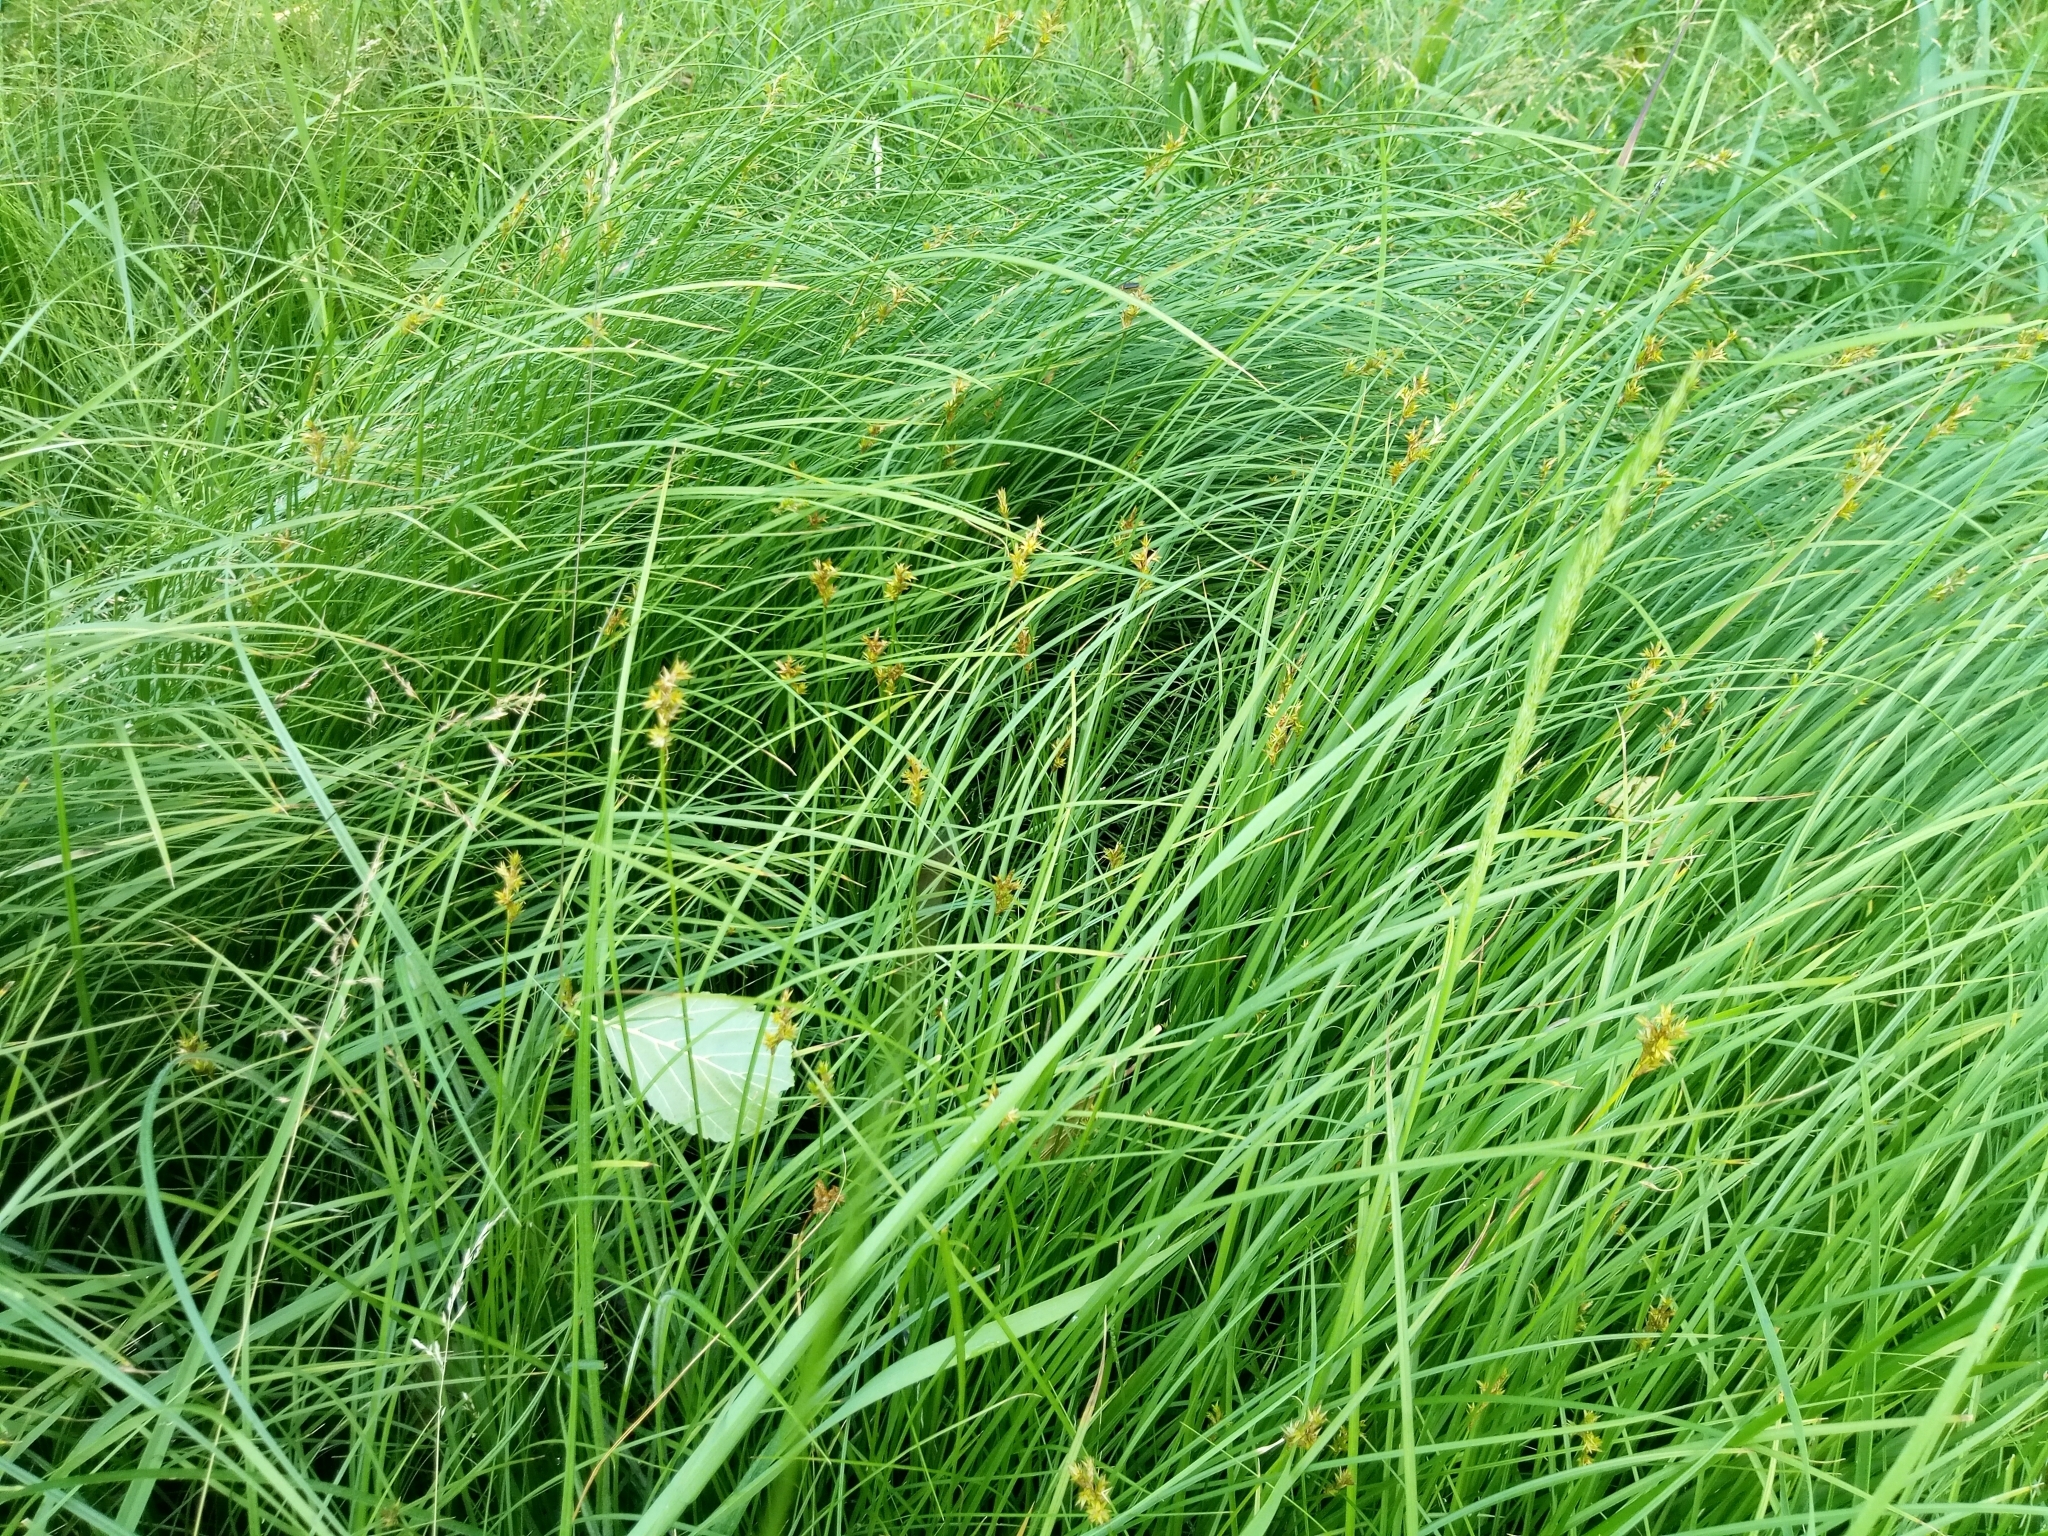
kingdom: Plantae
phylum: Tracheophyta
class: Liliopsida
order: Poales
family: Cyperaceae
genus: Carex
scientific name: Carex brizoides
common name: Quaking-grass sedge
